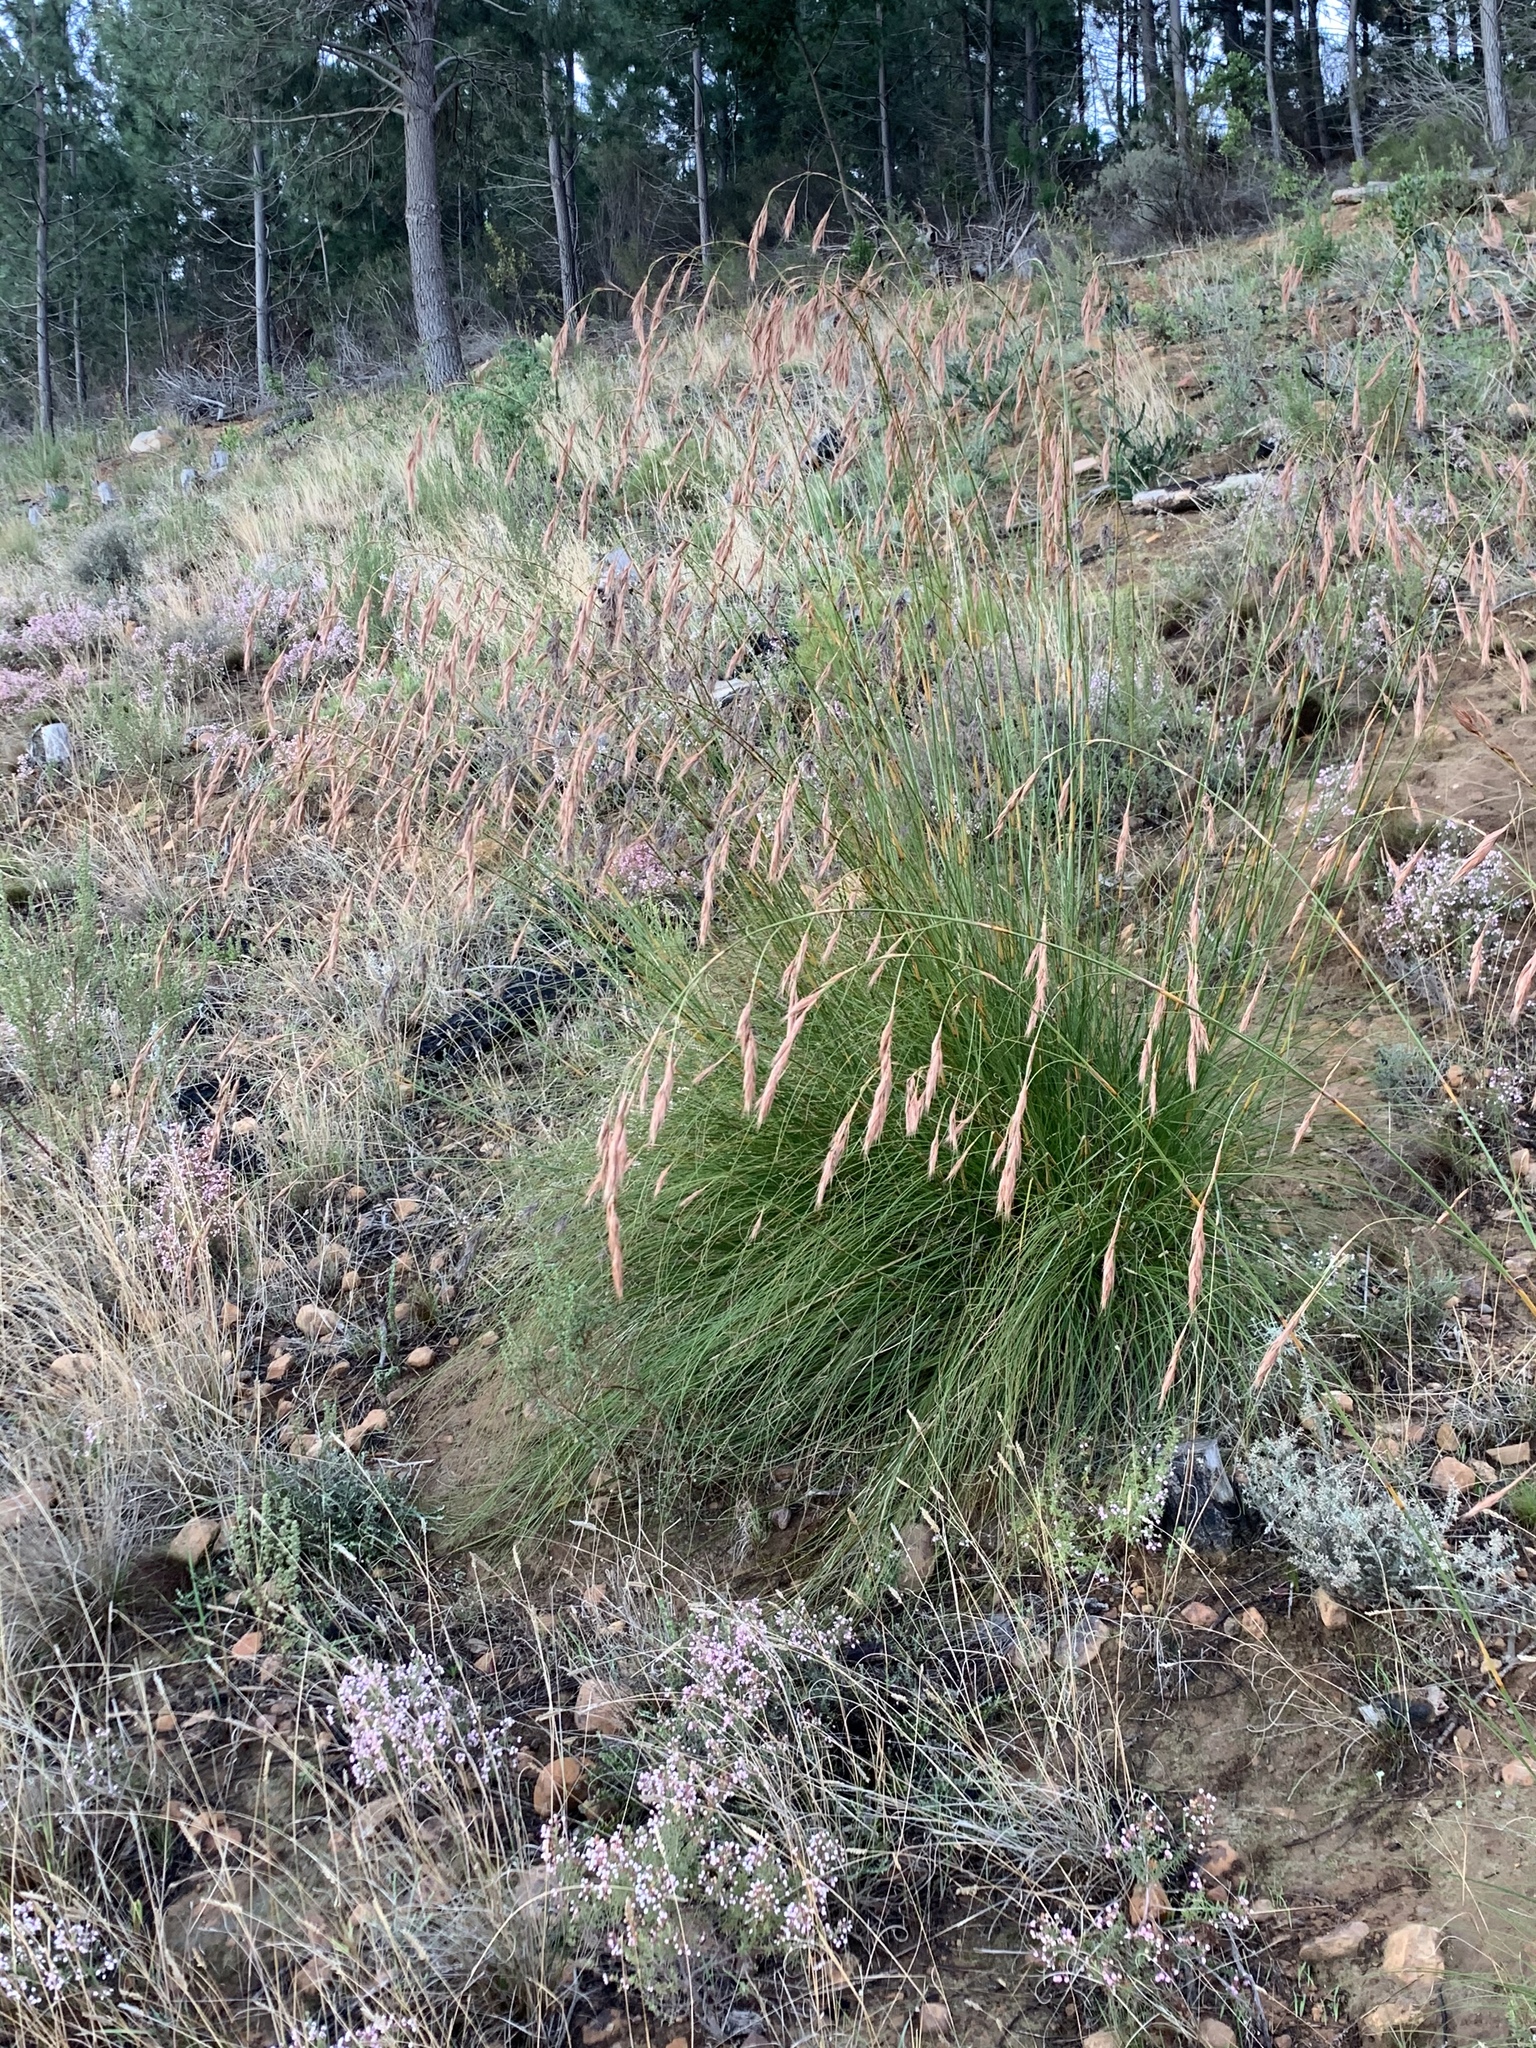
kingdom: Plantae
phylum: Tracheophyta
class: Liliopsida
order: Poales
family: Cyperaceae
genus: Tetraria
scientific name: Tetraria bromoides
